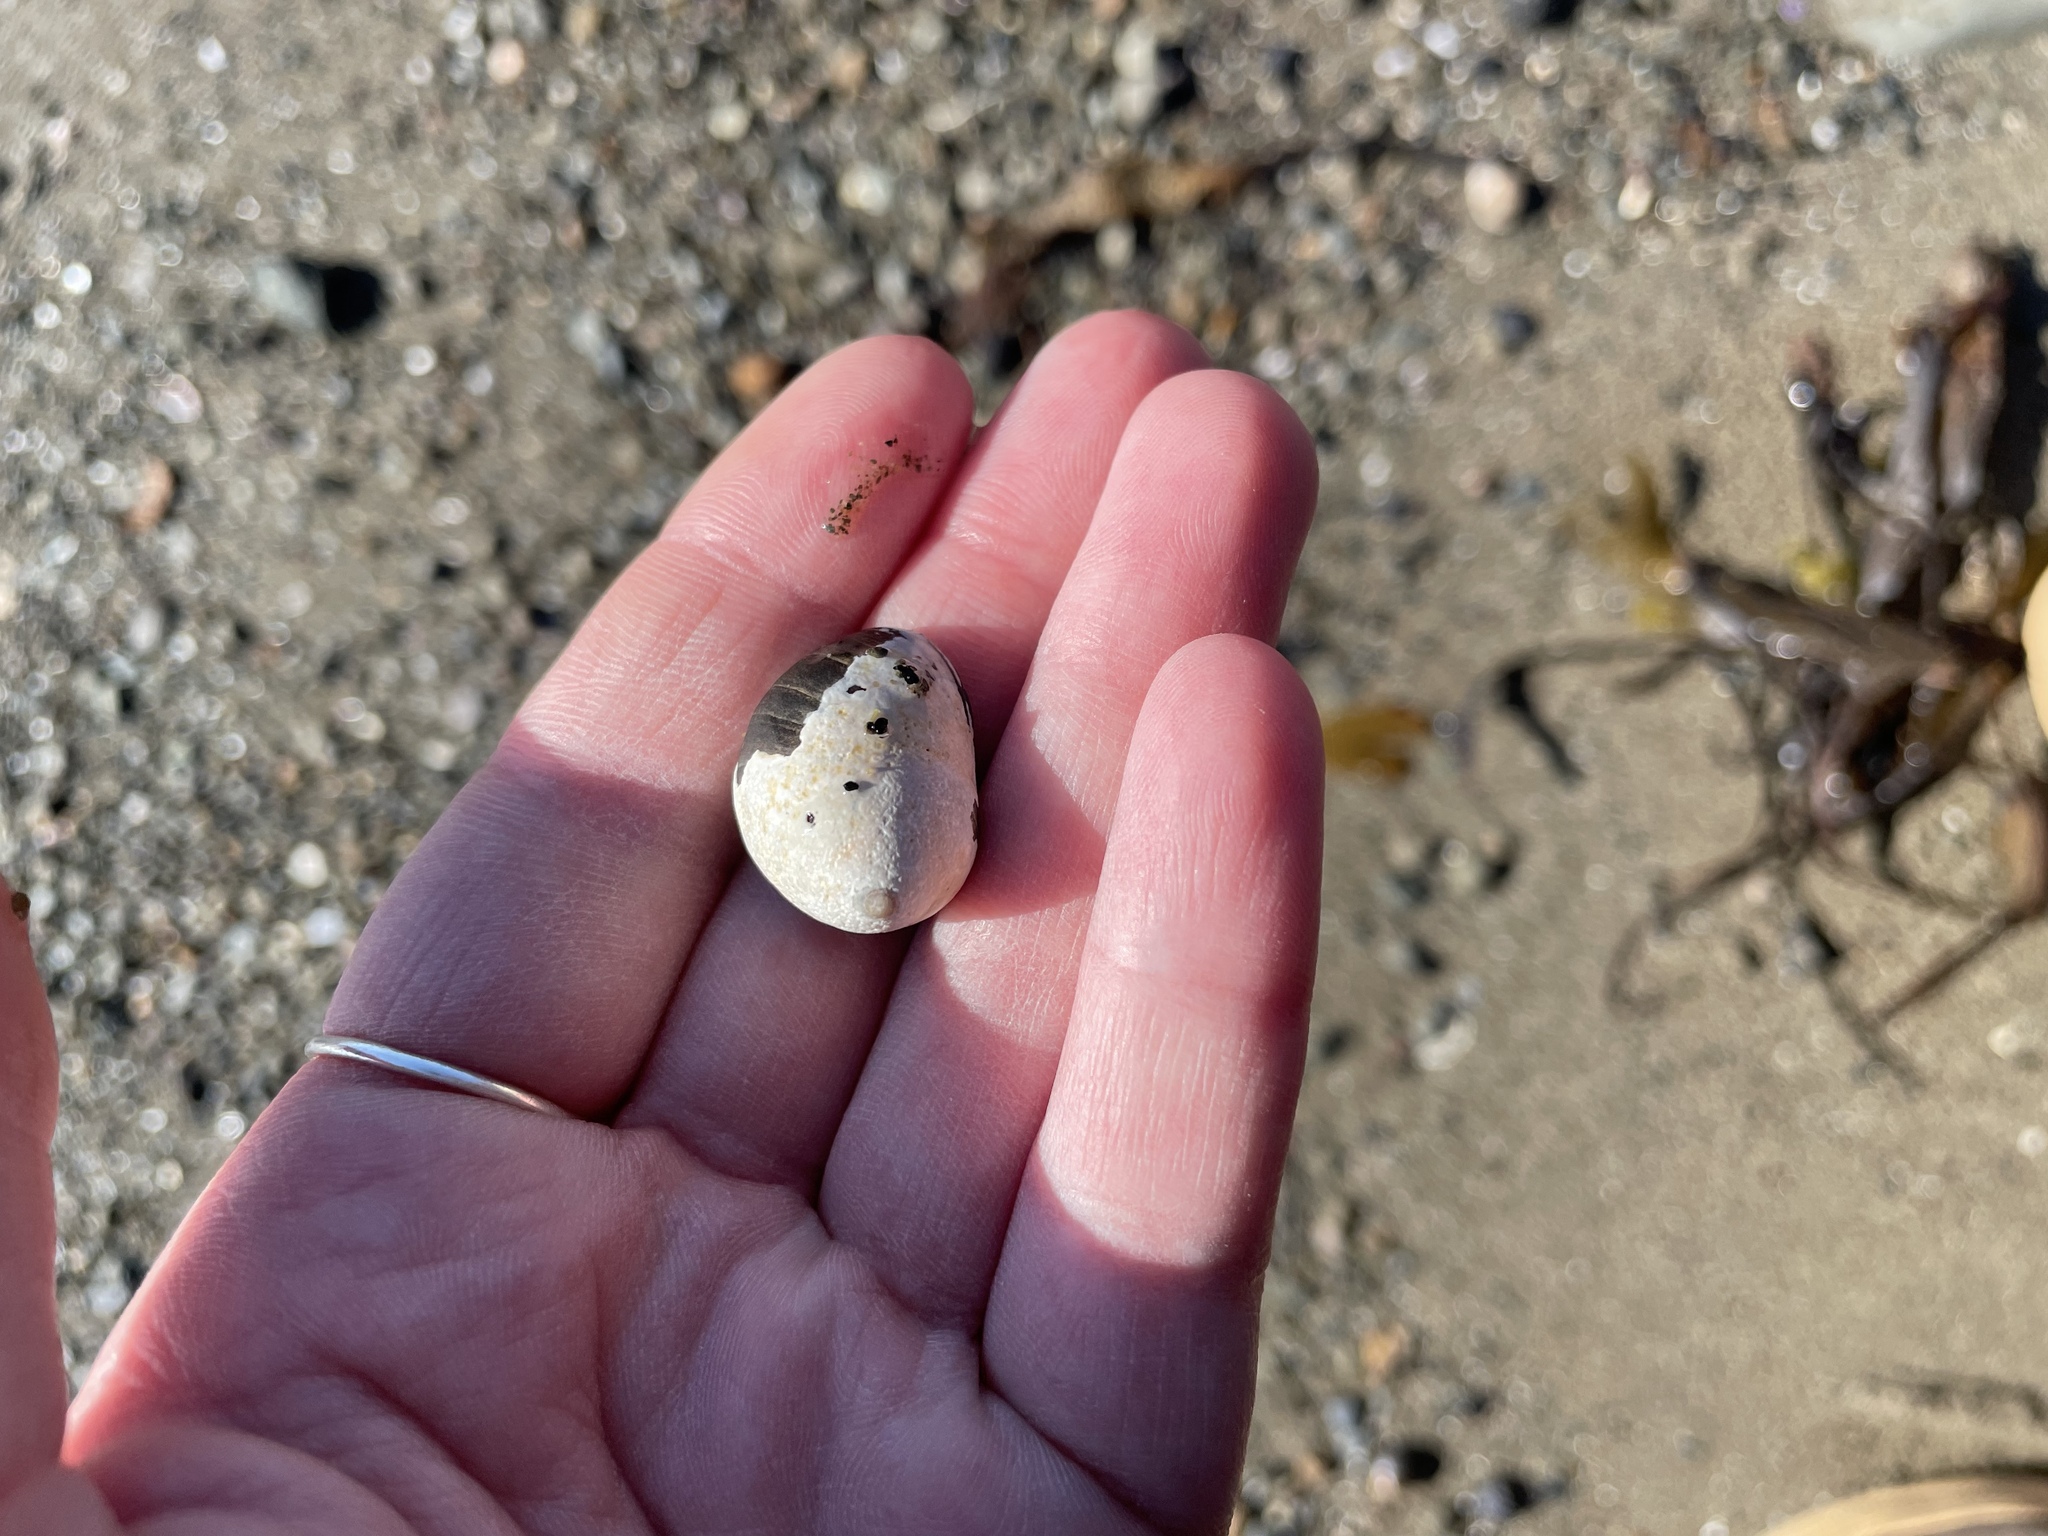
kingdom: Animalia
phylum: Mollusca
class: Gastropoda
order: Littorinimorpha
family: Littorinidae
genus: Littorina
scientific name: Littorina littorea
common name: Common periwinkle
